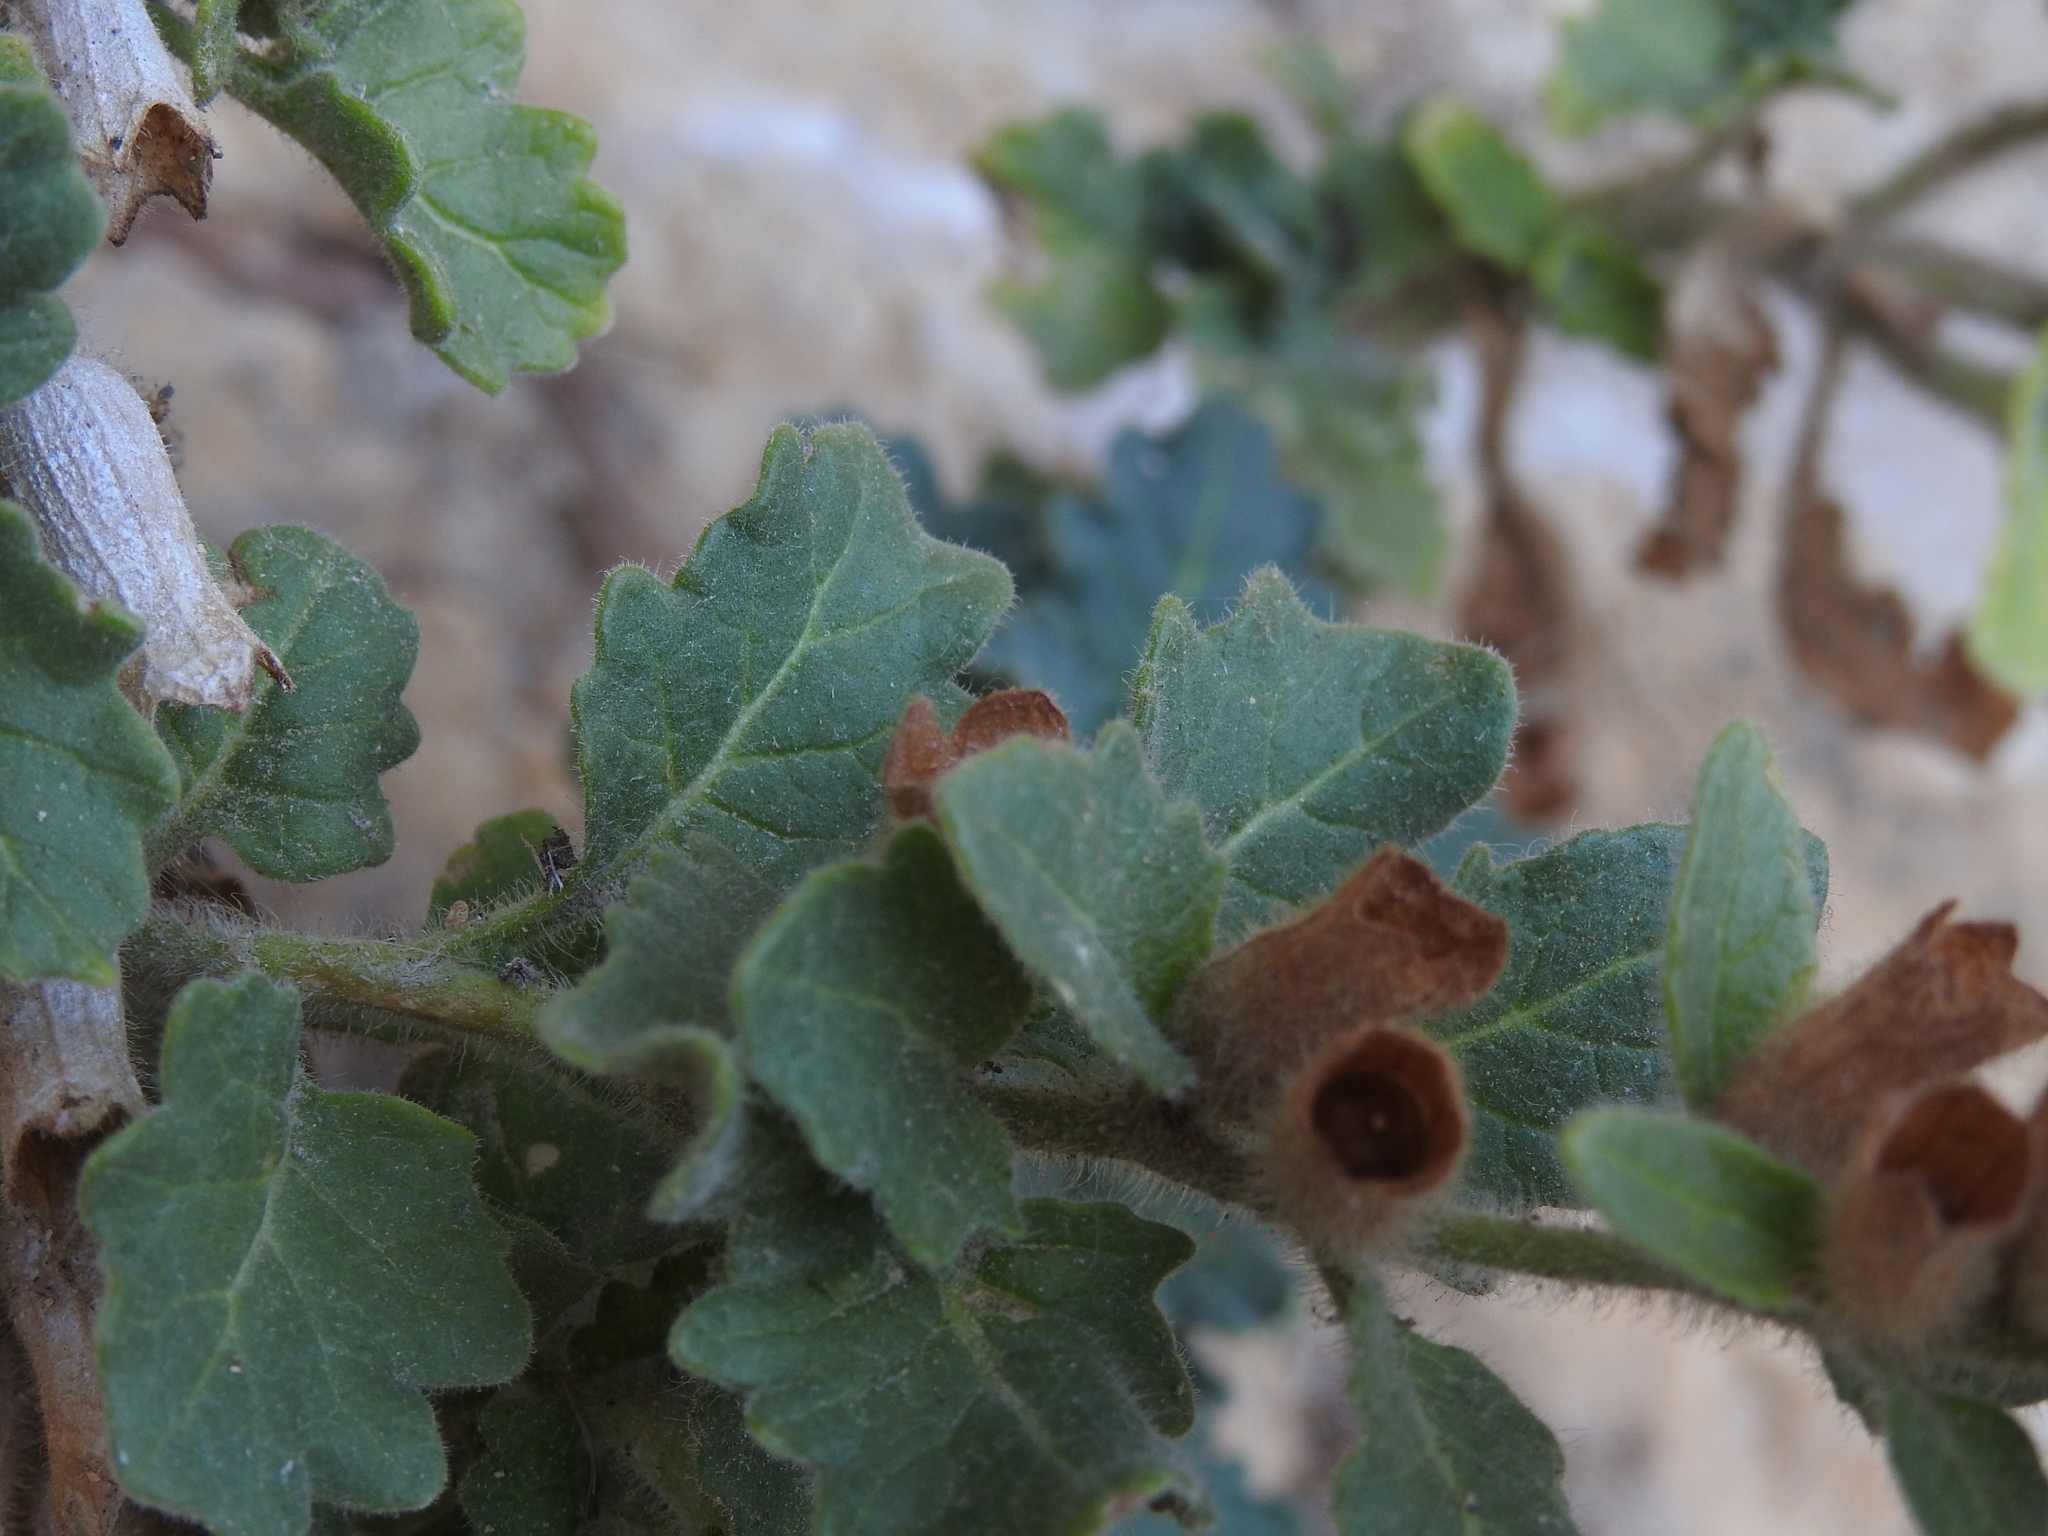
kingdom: Plantae
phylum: Tracheophyta
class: Magnoliopsida
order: Solanales
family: Solanaceae
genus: Hyoscyamus
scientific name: Hyoscyamus albus
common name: White henbane
